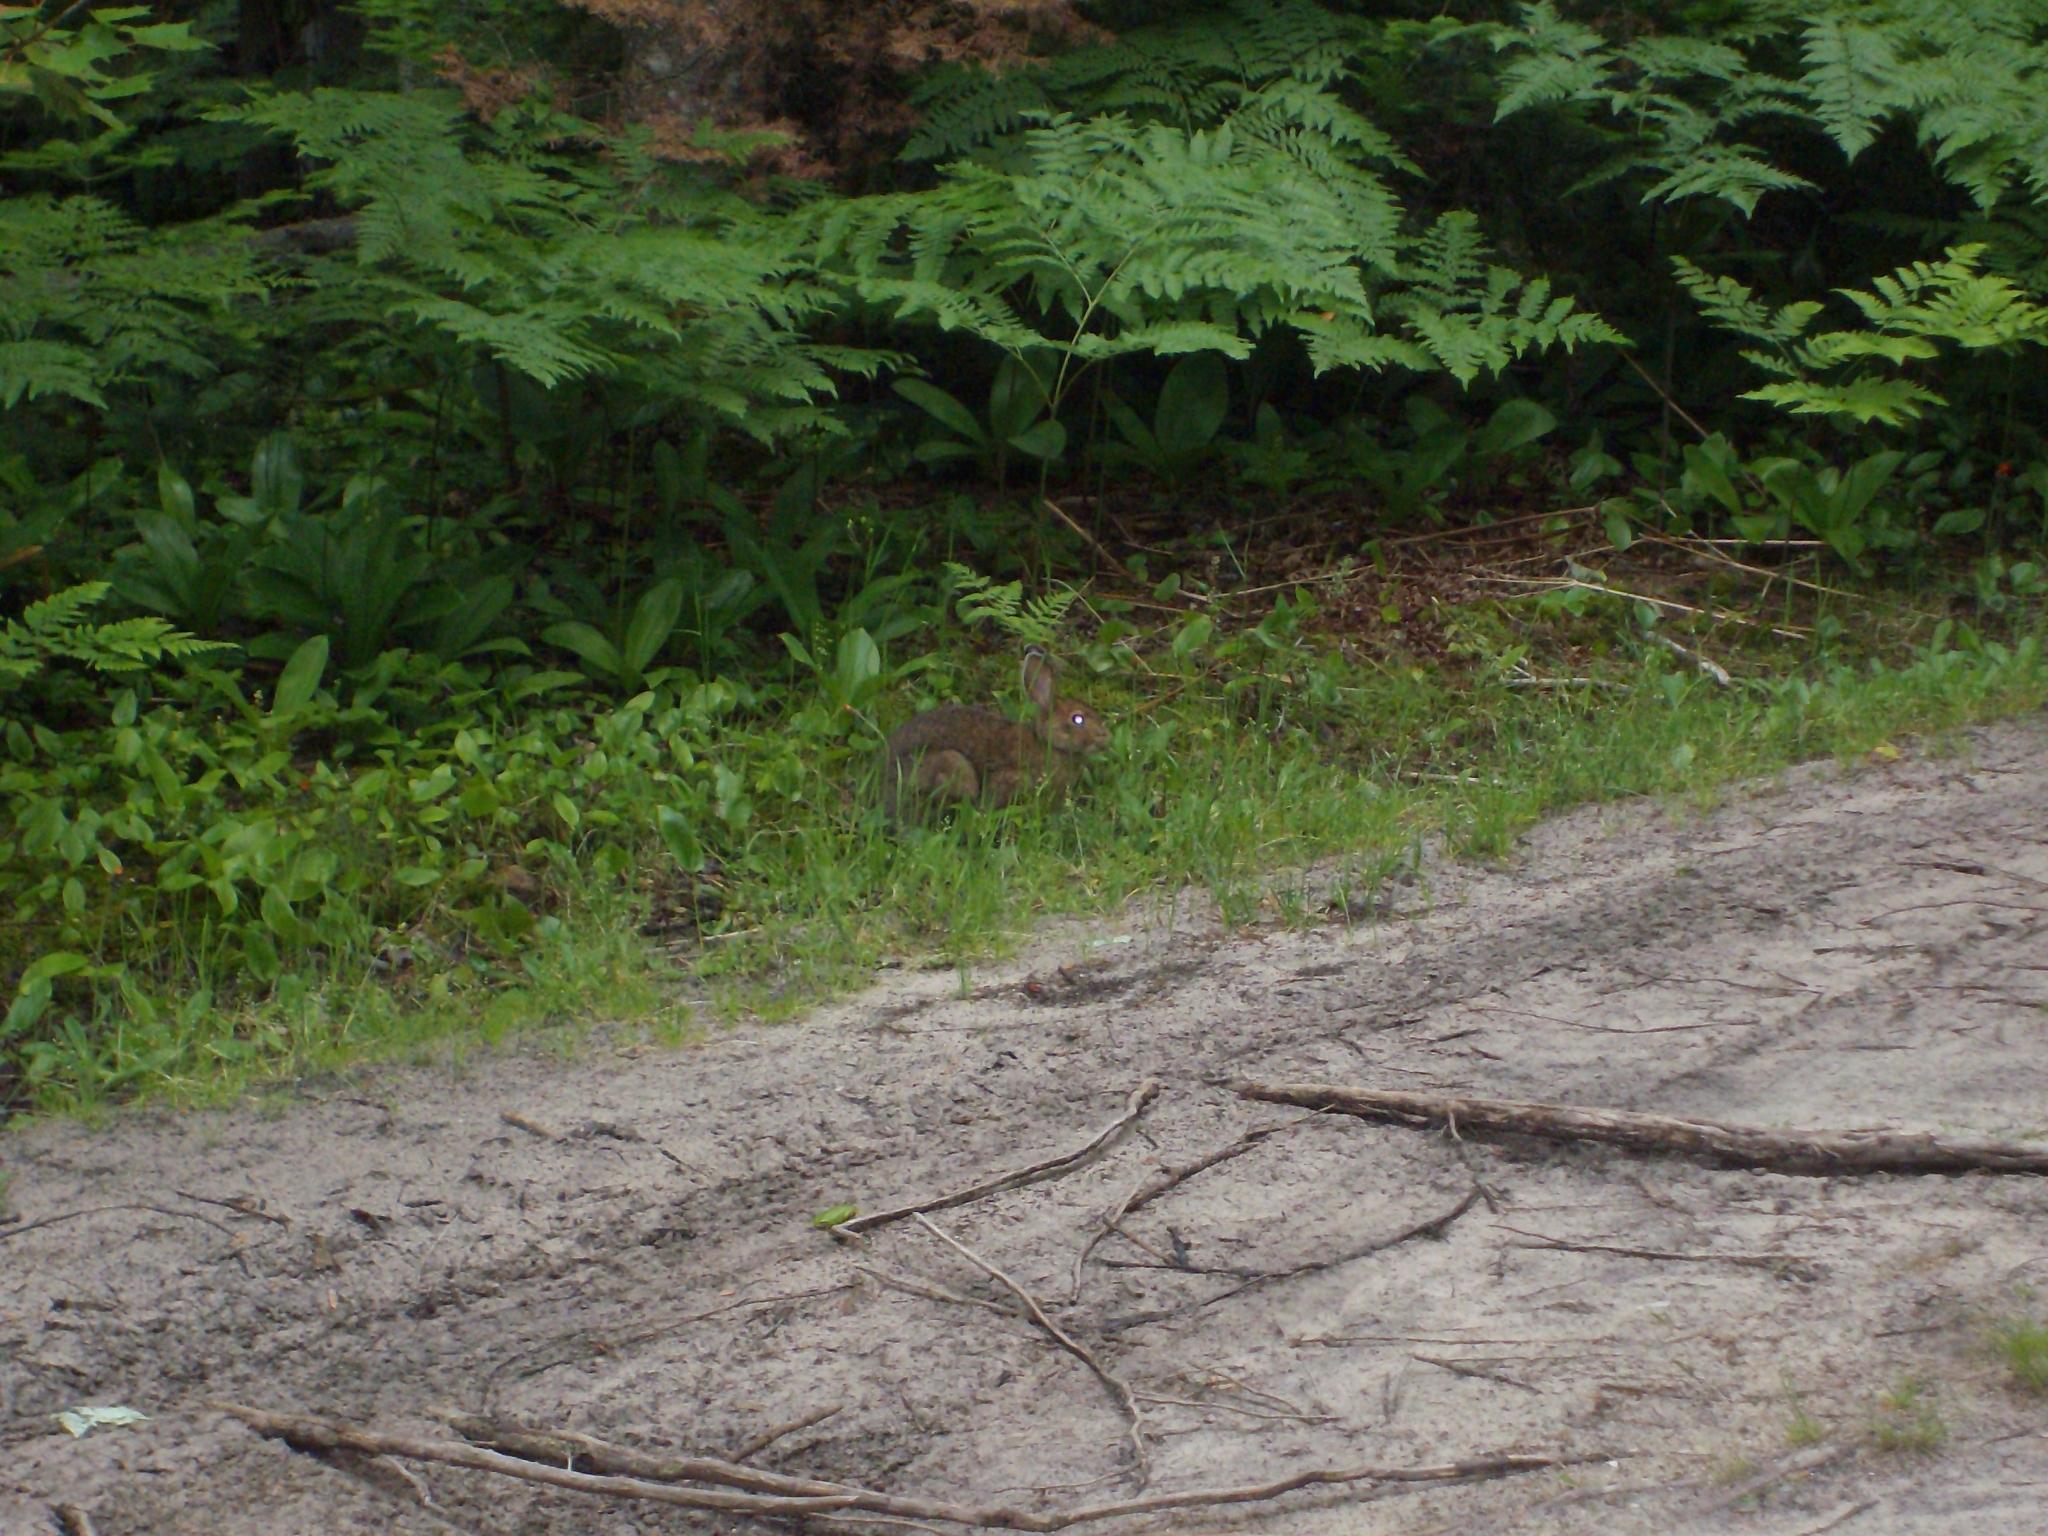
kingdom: Animalia
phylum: Chordata
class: Mammalia
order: Lagomorpha
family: Leporidae
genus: Lepus
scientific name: Lepus americanus
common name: Snowshoe hare
